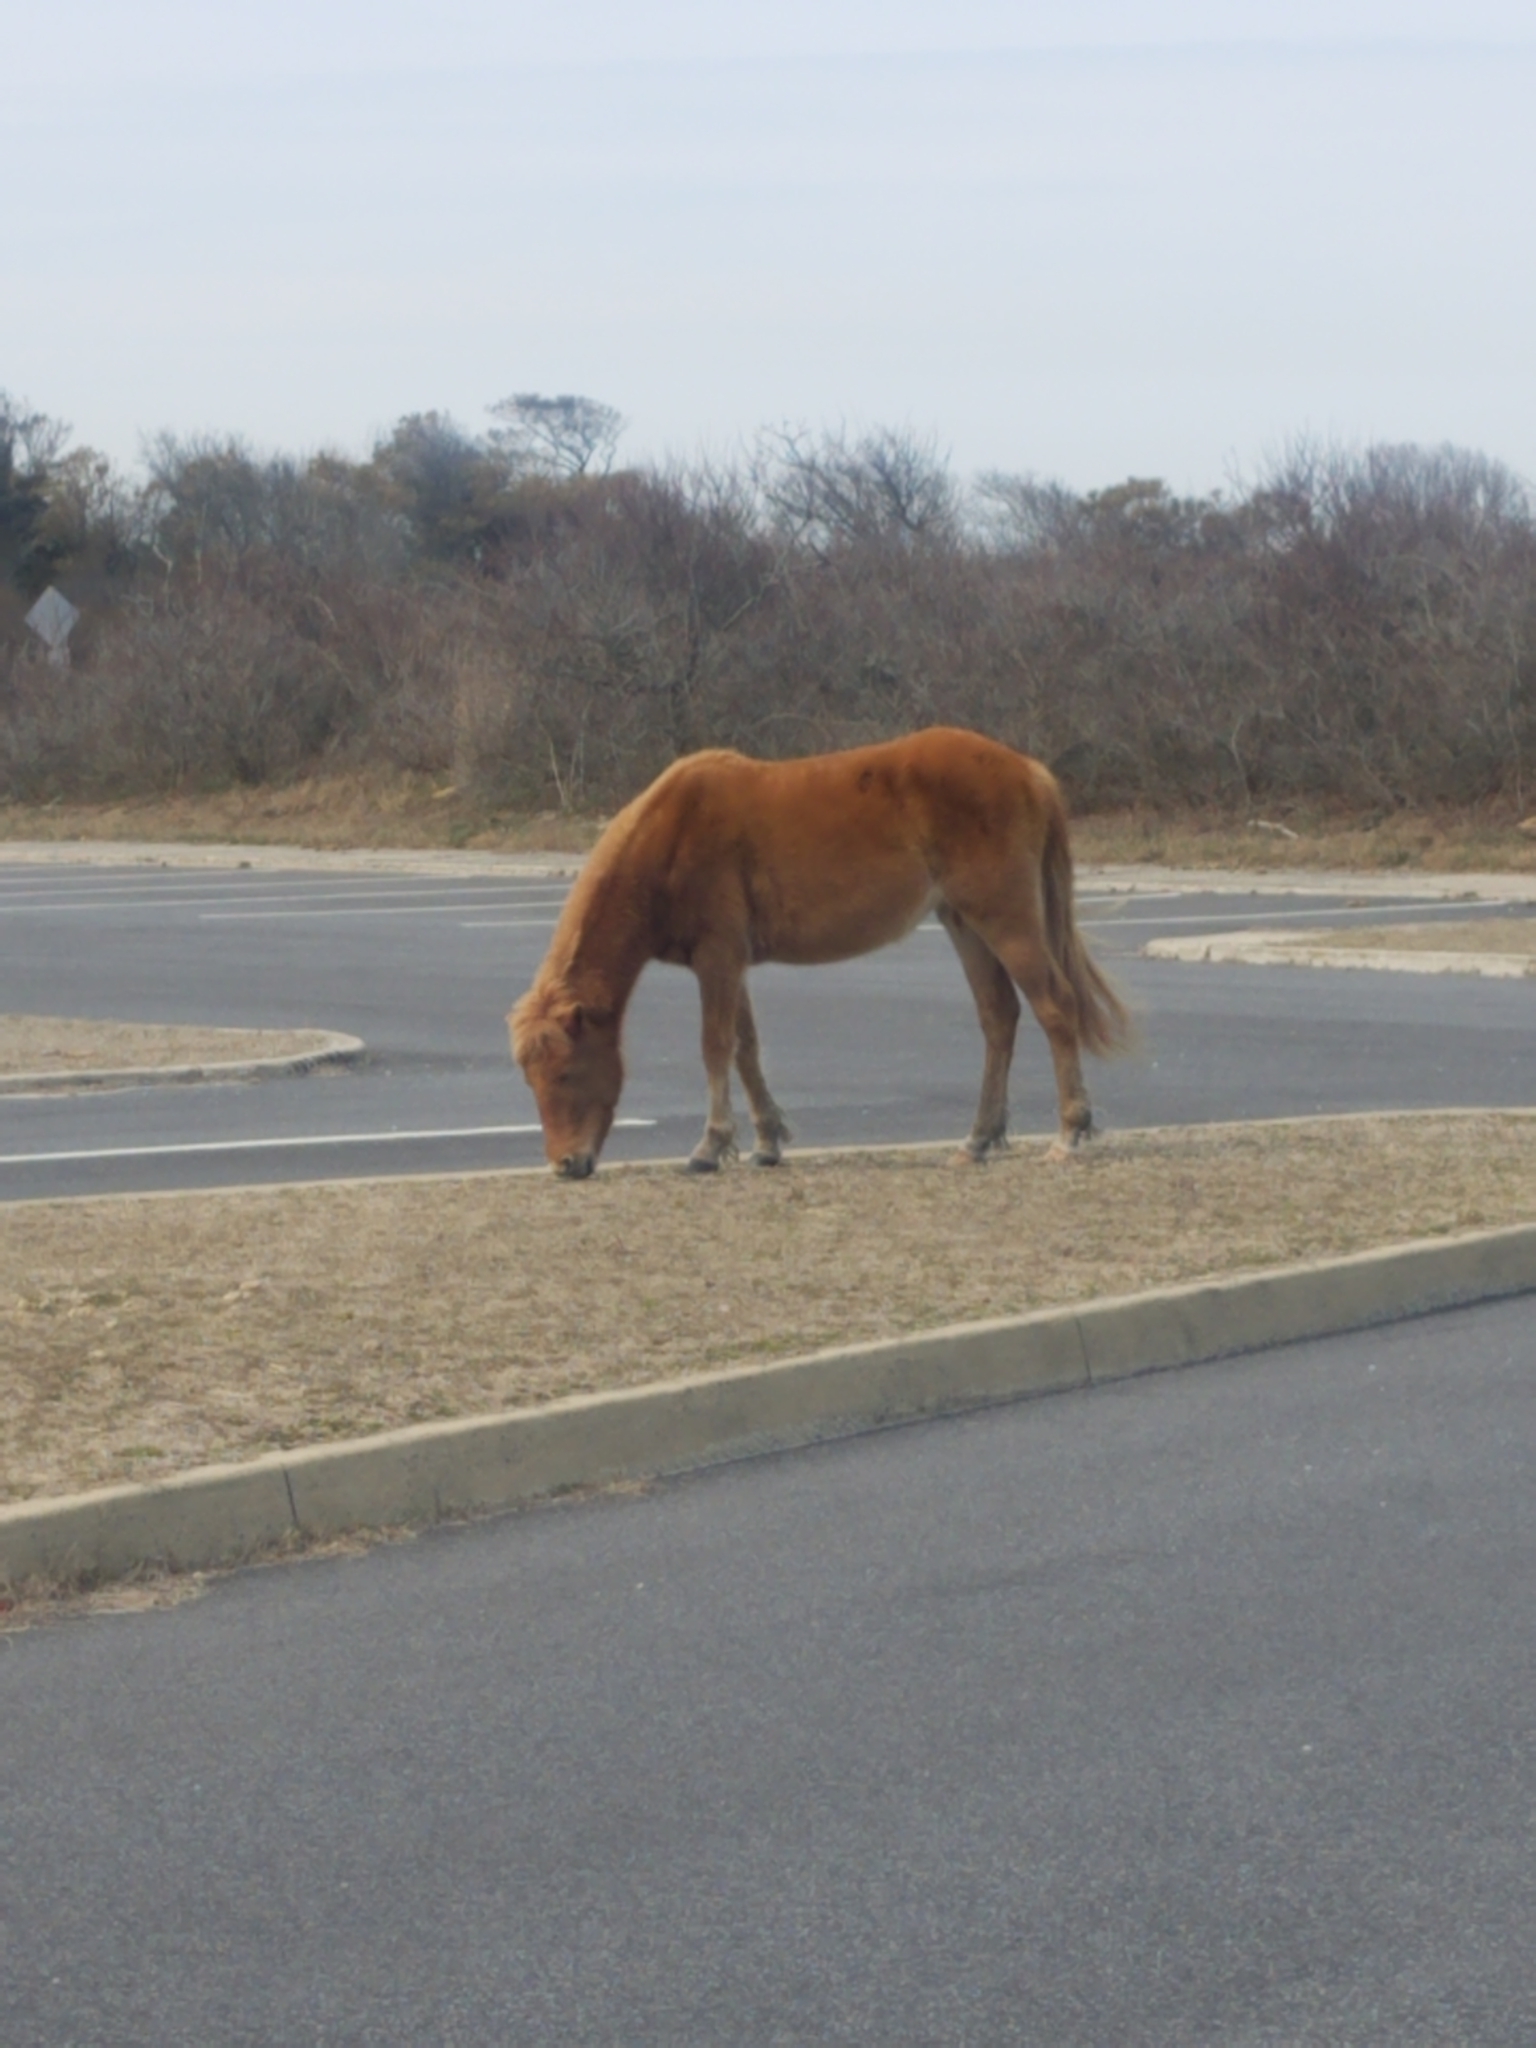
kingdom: Animalia
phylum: Chordata
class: Mammalia
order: Perissodactyla
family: Equidae
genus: Equus
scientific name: Equus caballus
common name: Horse
